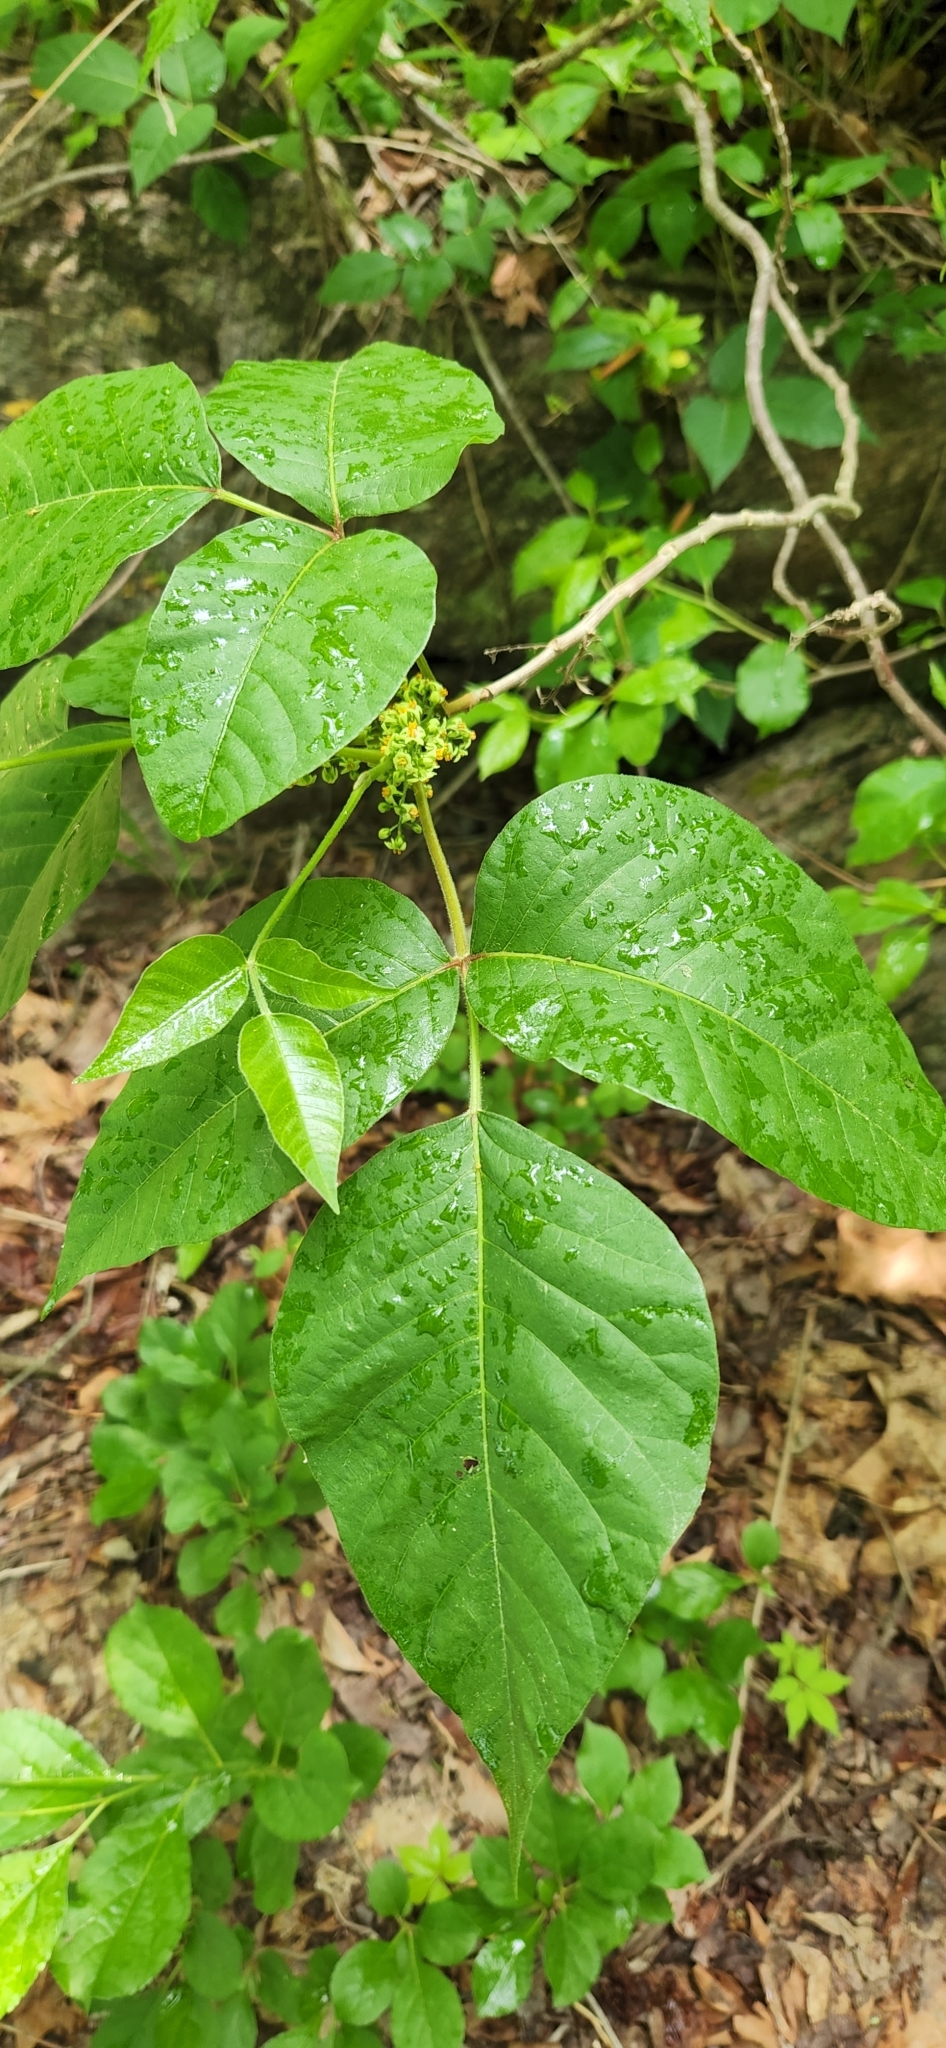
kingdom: Plantae
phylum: Tracheophyta
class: Magnoliopsida
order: Sapindales
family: Anacardiaceae
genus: Toxicodendron
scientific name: Toxicodendron radicans
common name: Poison ivy
